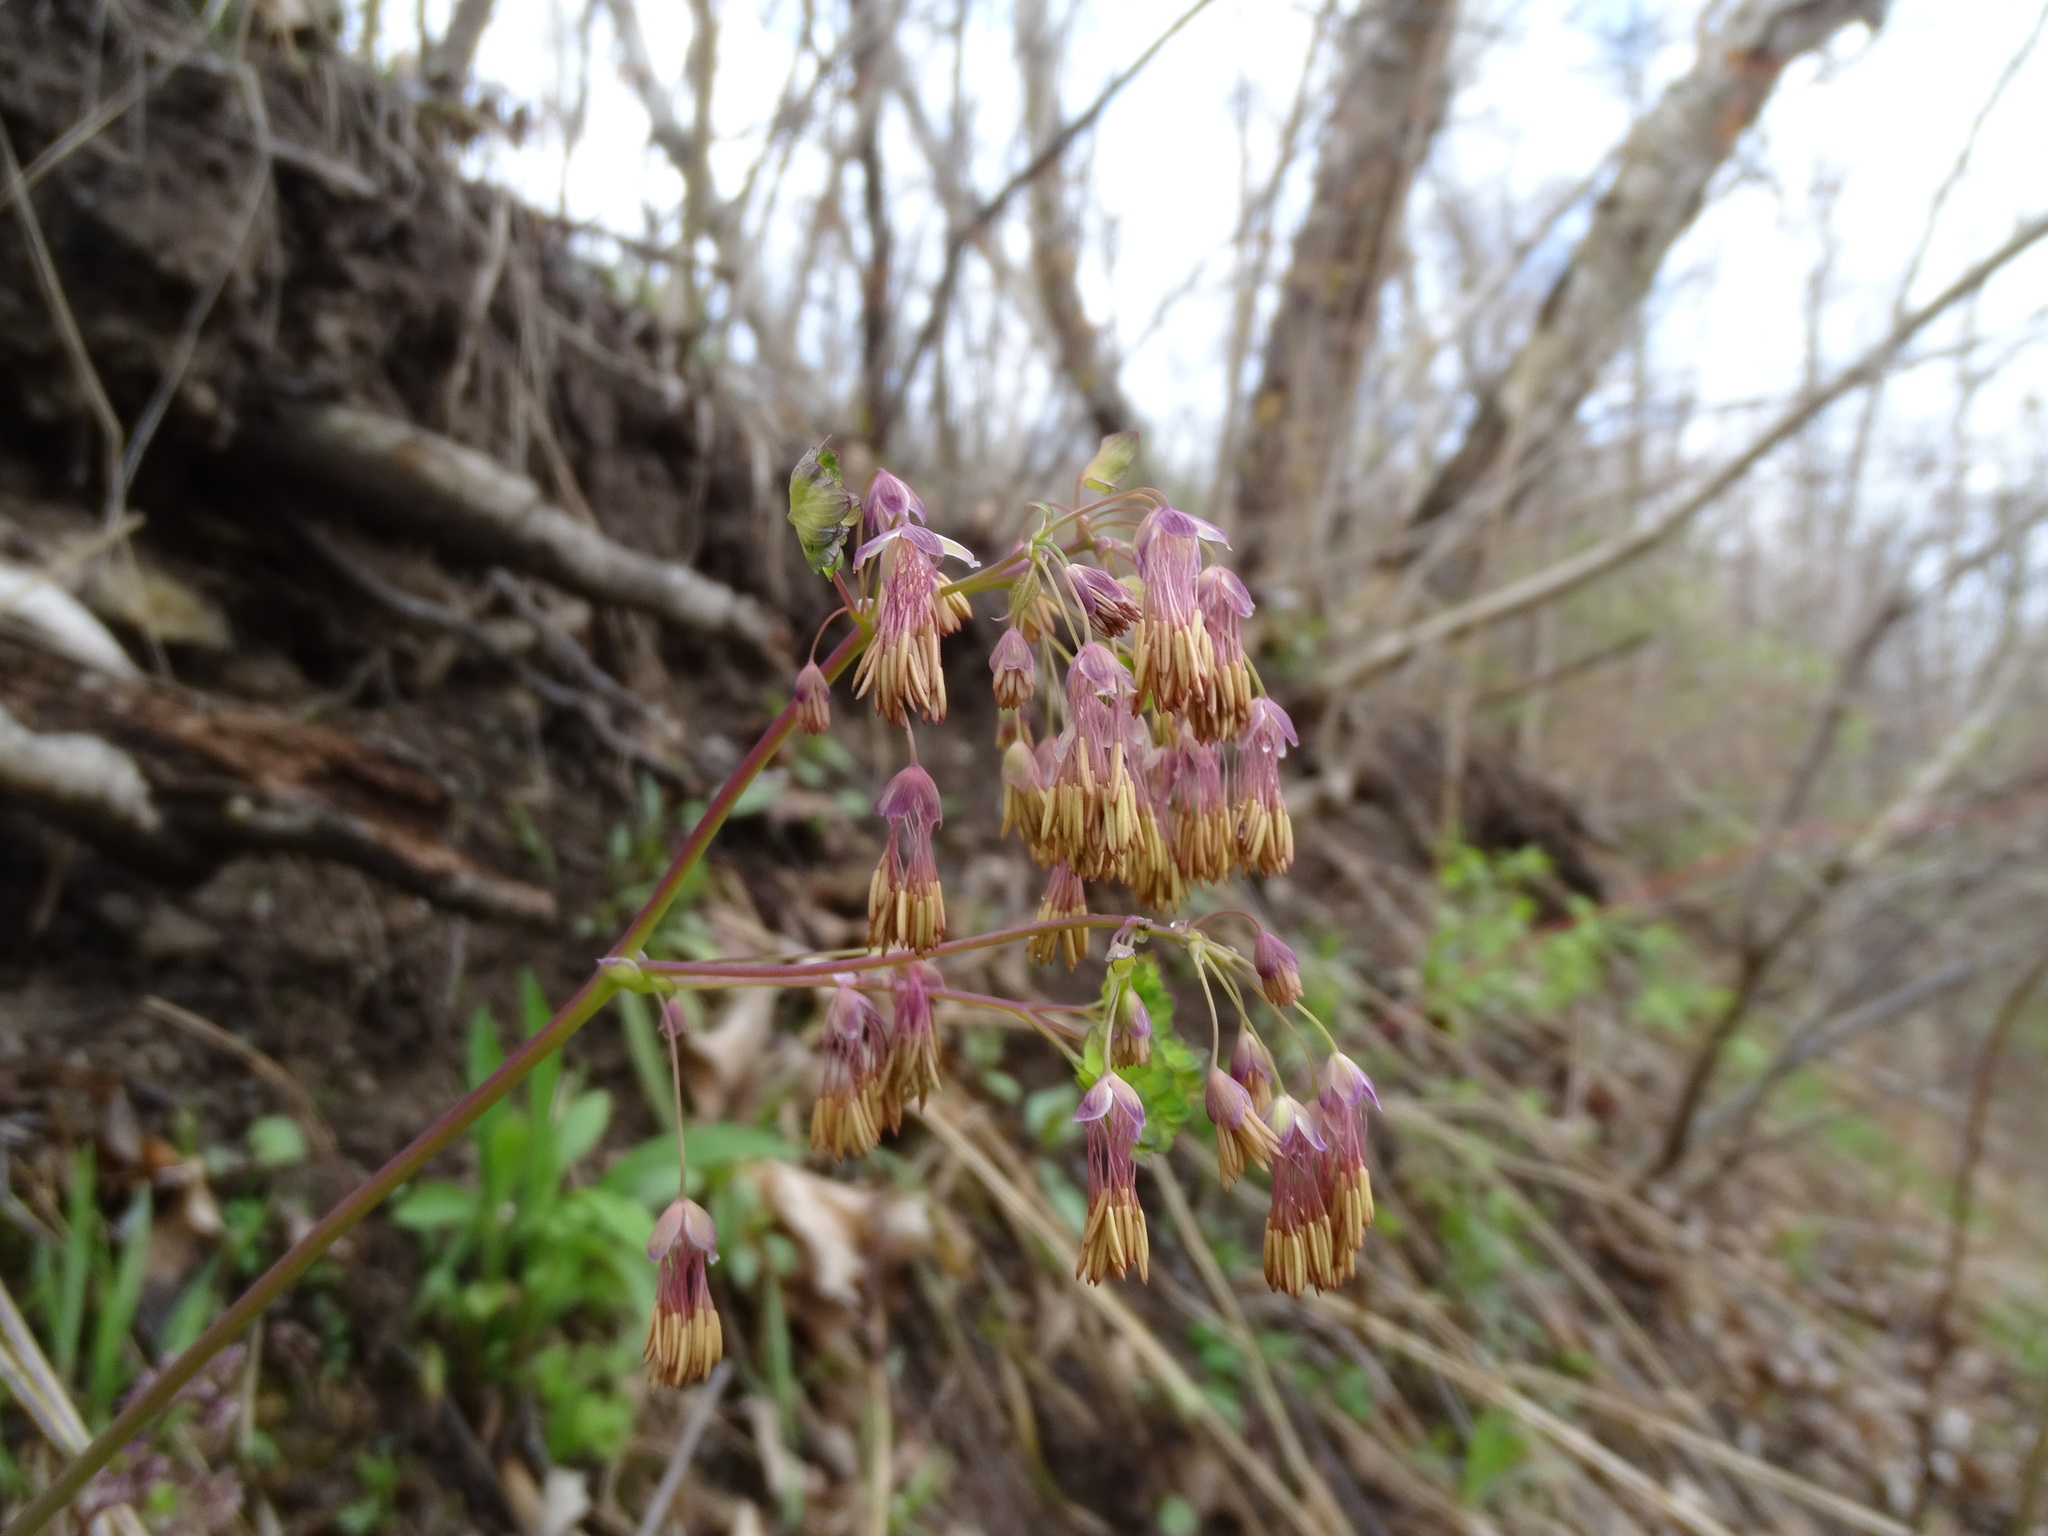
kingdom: Plantae
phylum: Tracheophyta
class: Magnoliopsida
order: Ranunculales
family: Ranunculaceae
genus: Thalictrum
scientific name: Thalictrum dioicum
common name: Early meadow-rue
